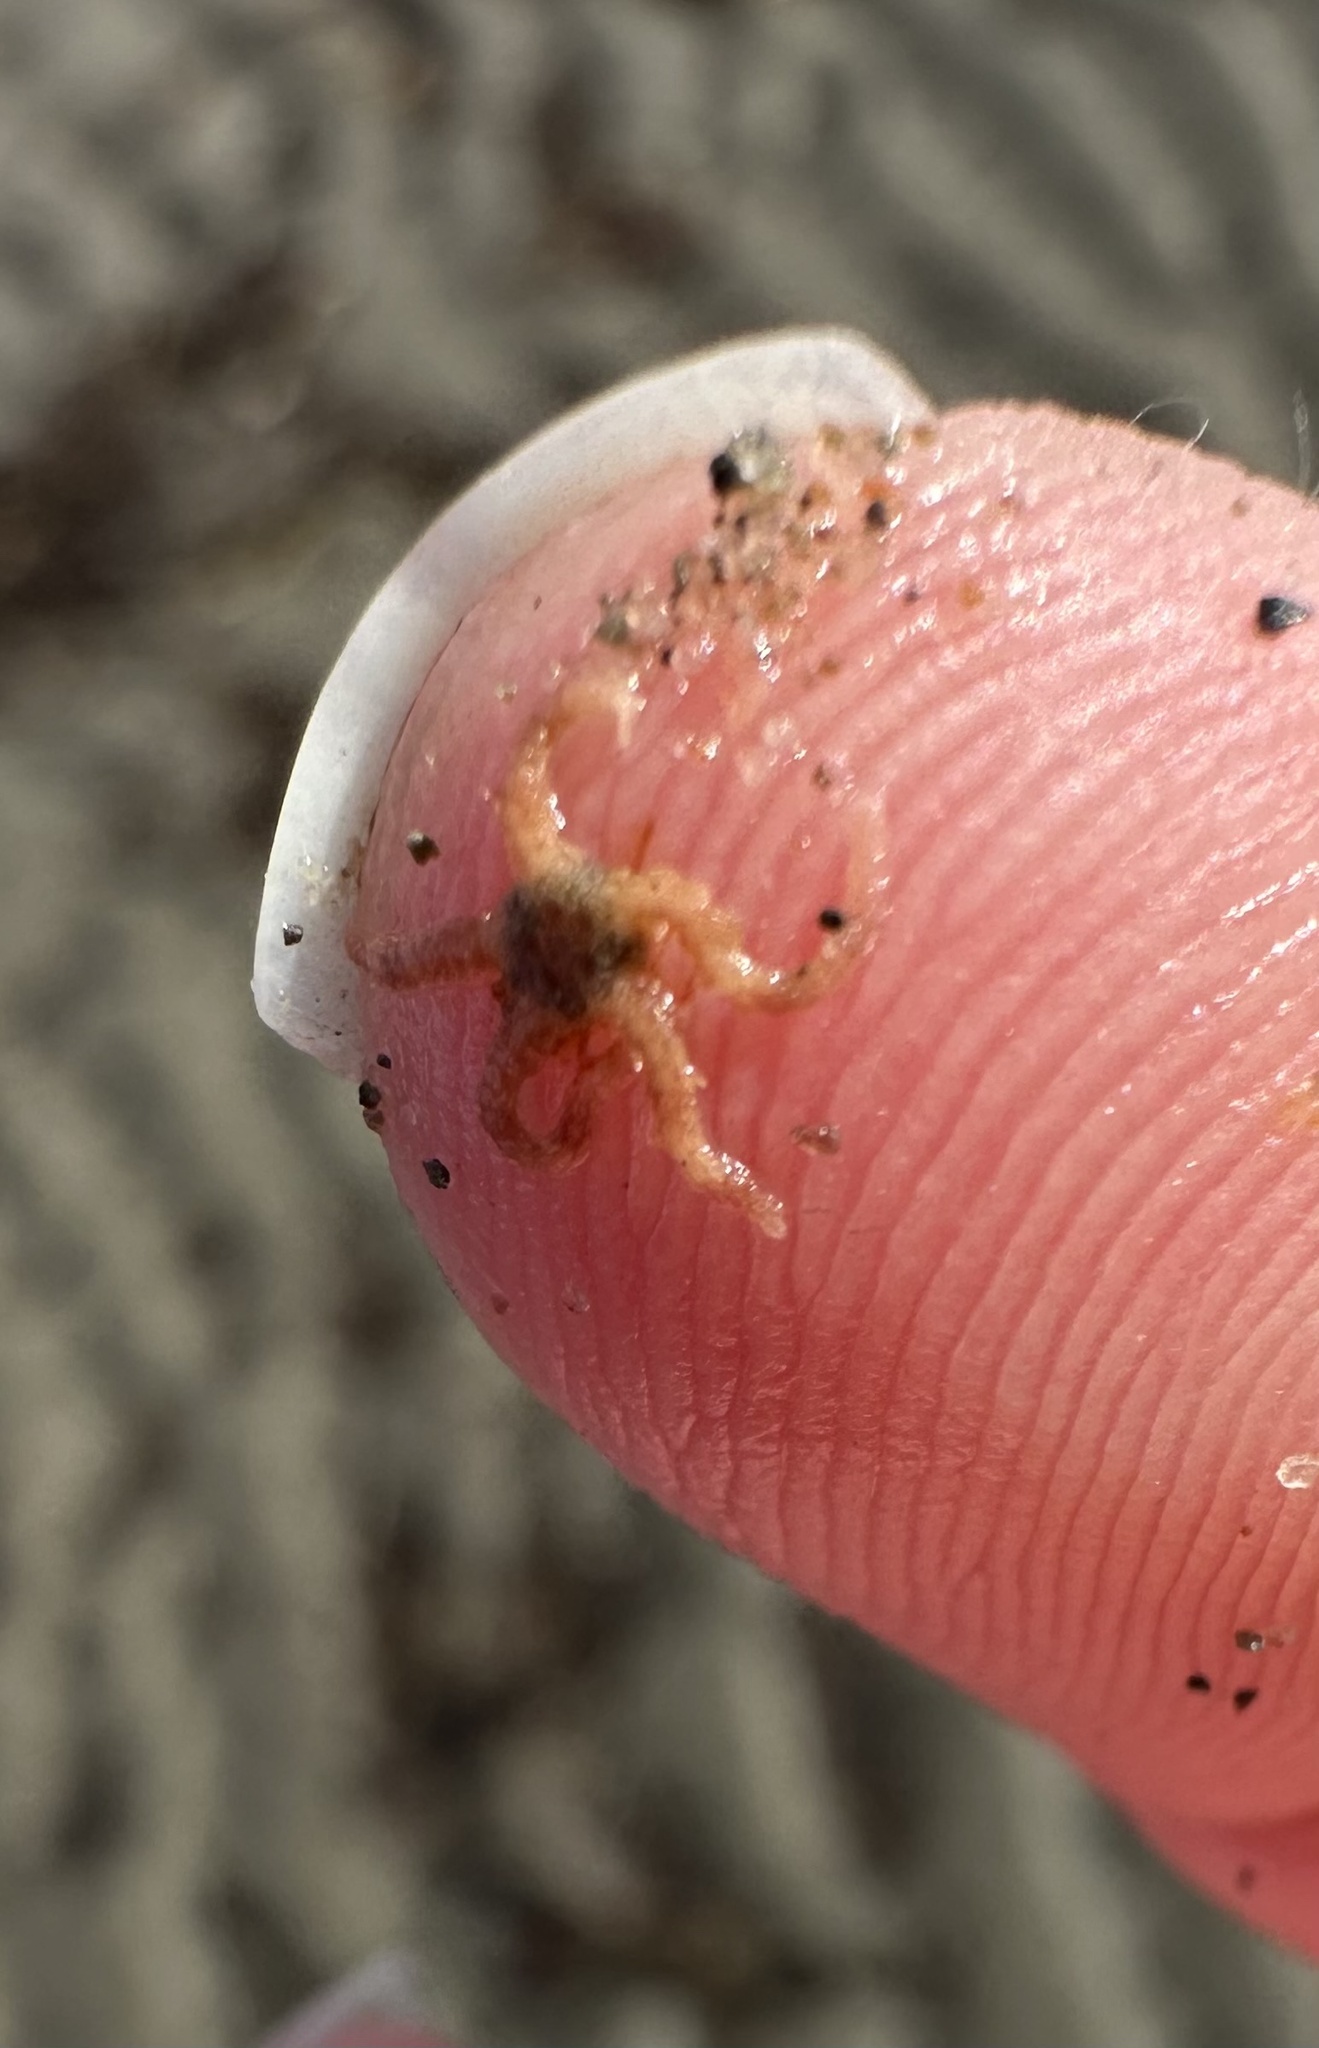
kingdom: Animalia
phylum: Echinodermata
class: Ophiuroidea
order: Amphilepidida
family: Ophiopholidae
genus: Ophiopholis
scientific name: Ophiopholis aculeata
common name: Crevice brittlestar
